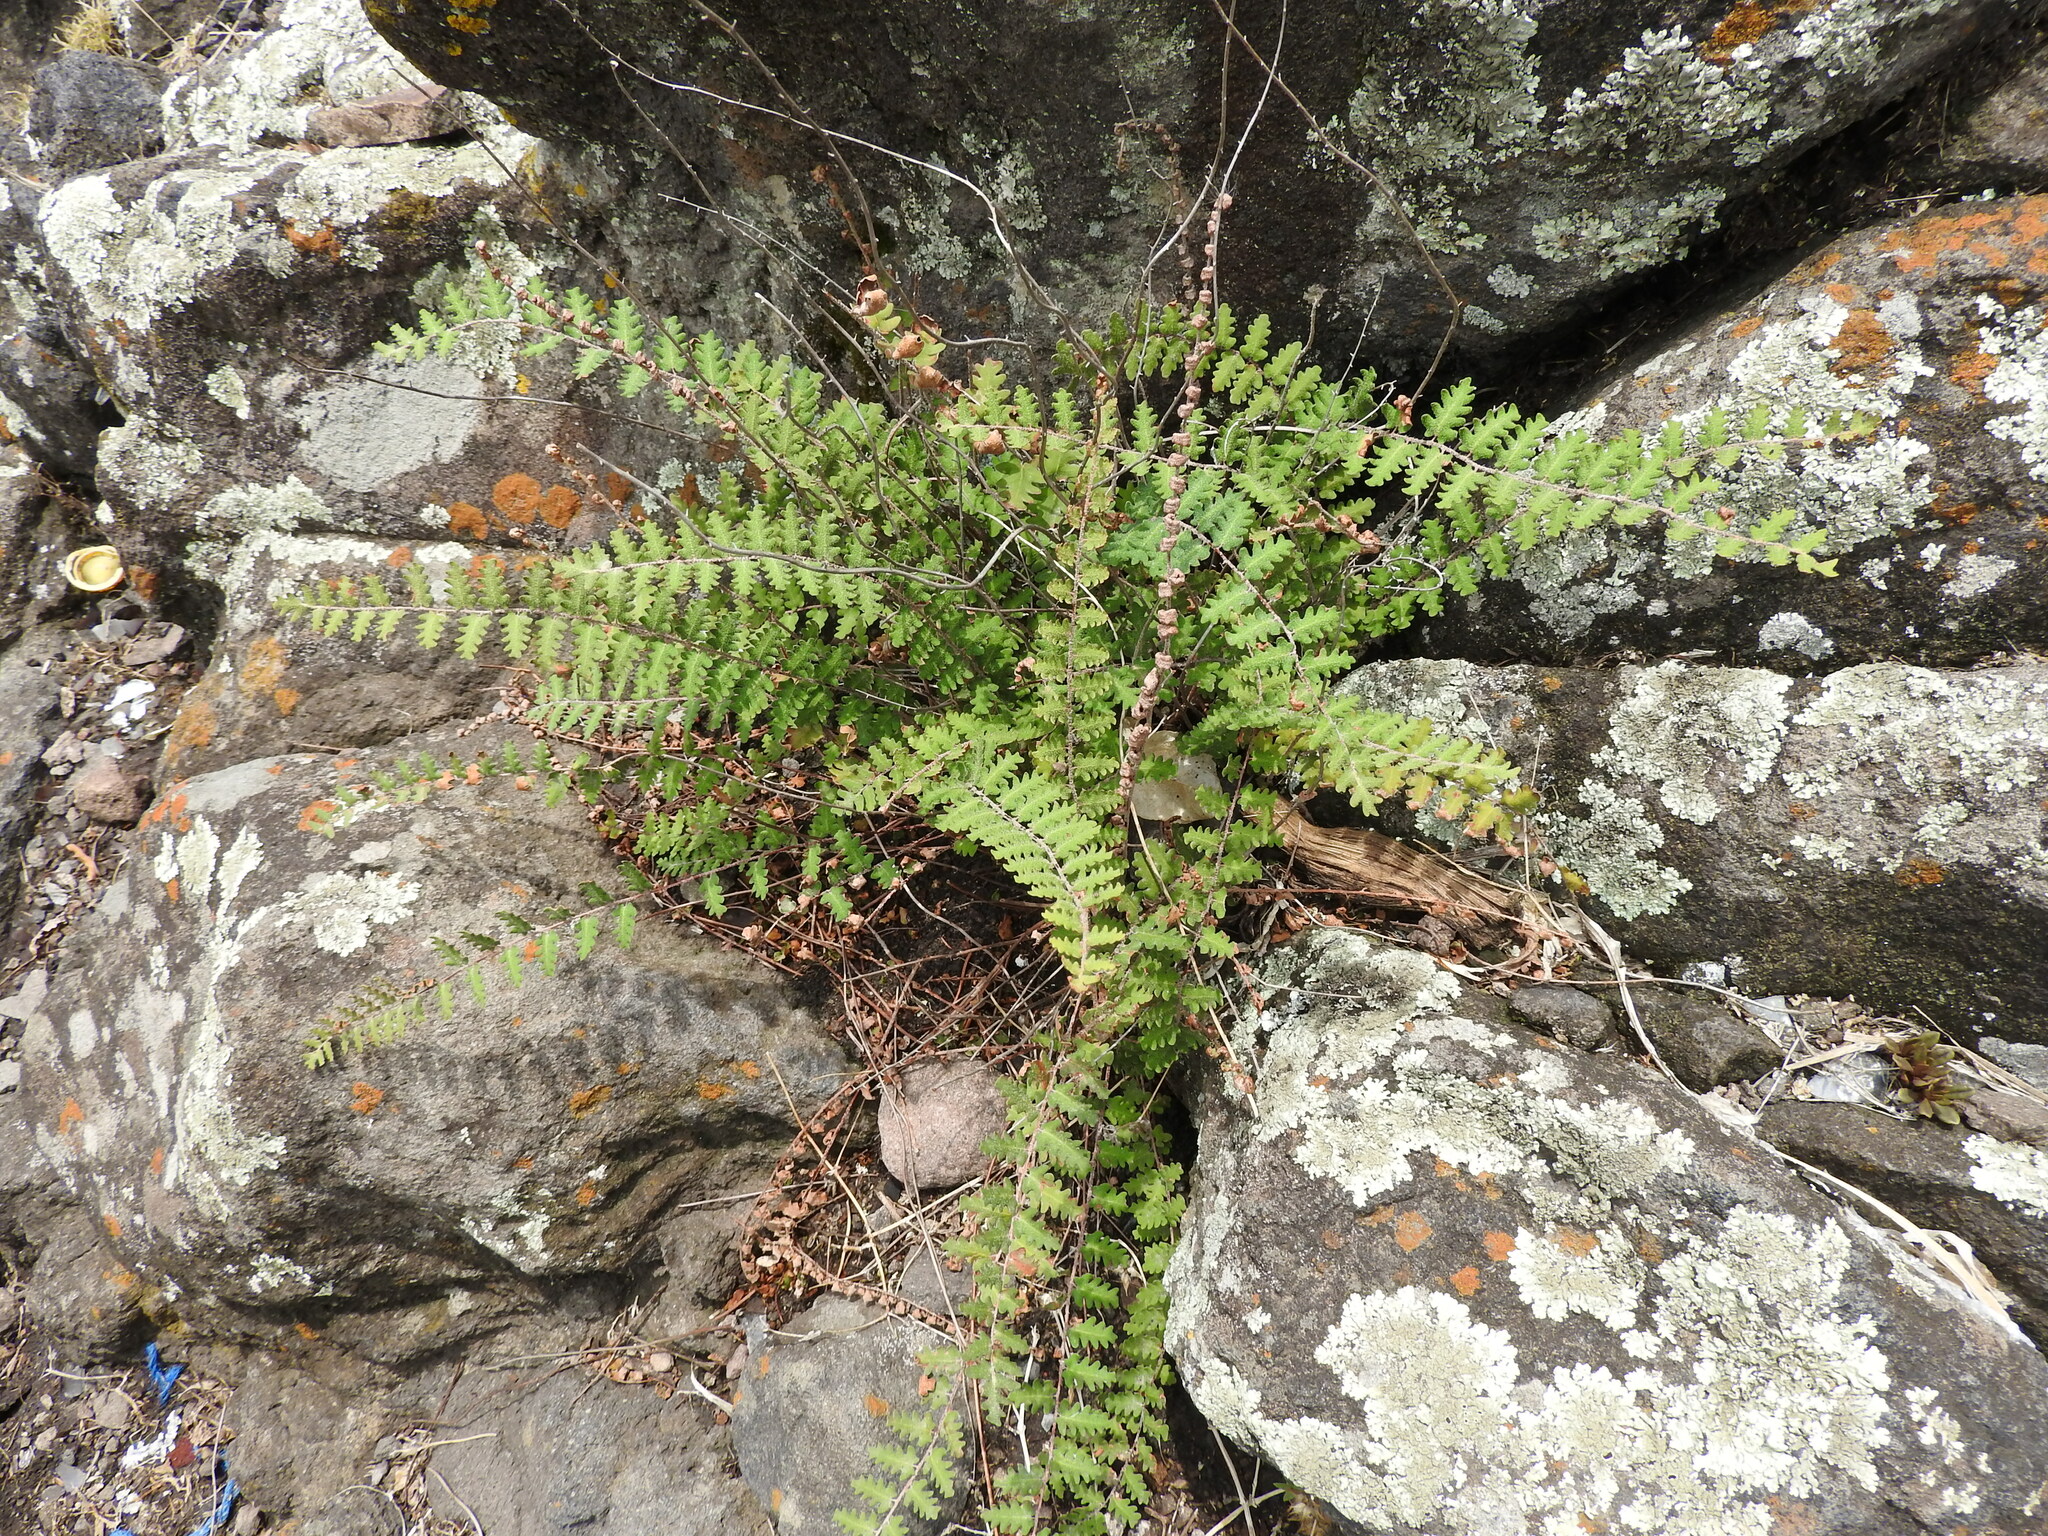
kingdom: Plantae
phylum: Tracheophyta
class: Polypodiopsida
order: Polypodiales
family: Pteridaceae
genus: Astrolepis
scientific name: Astrolepis sinuata
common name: Wavy scaly cloakfern
